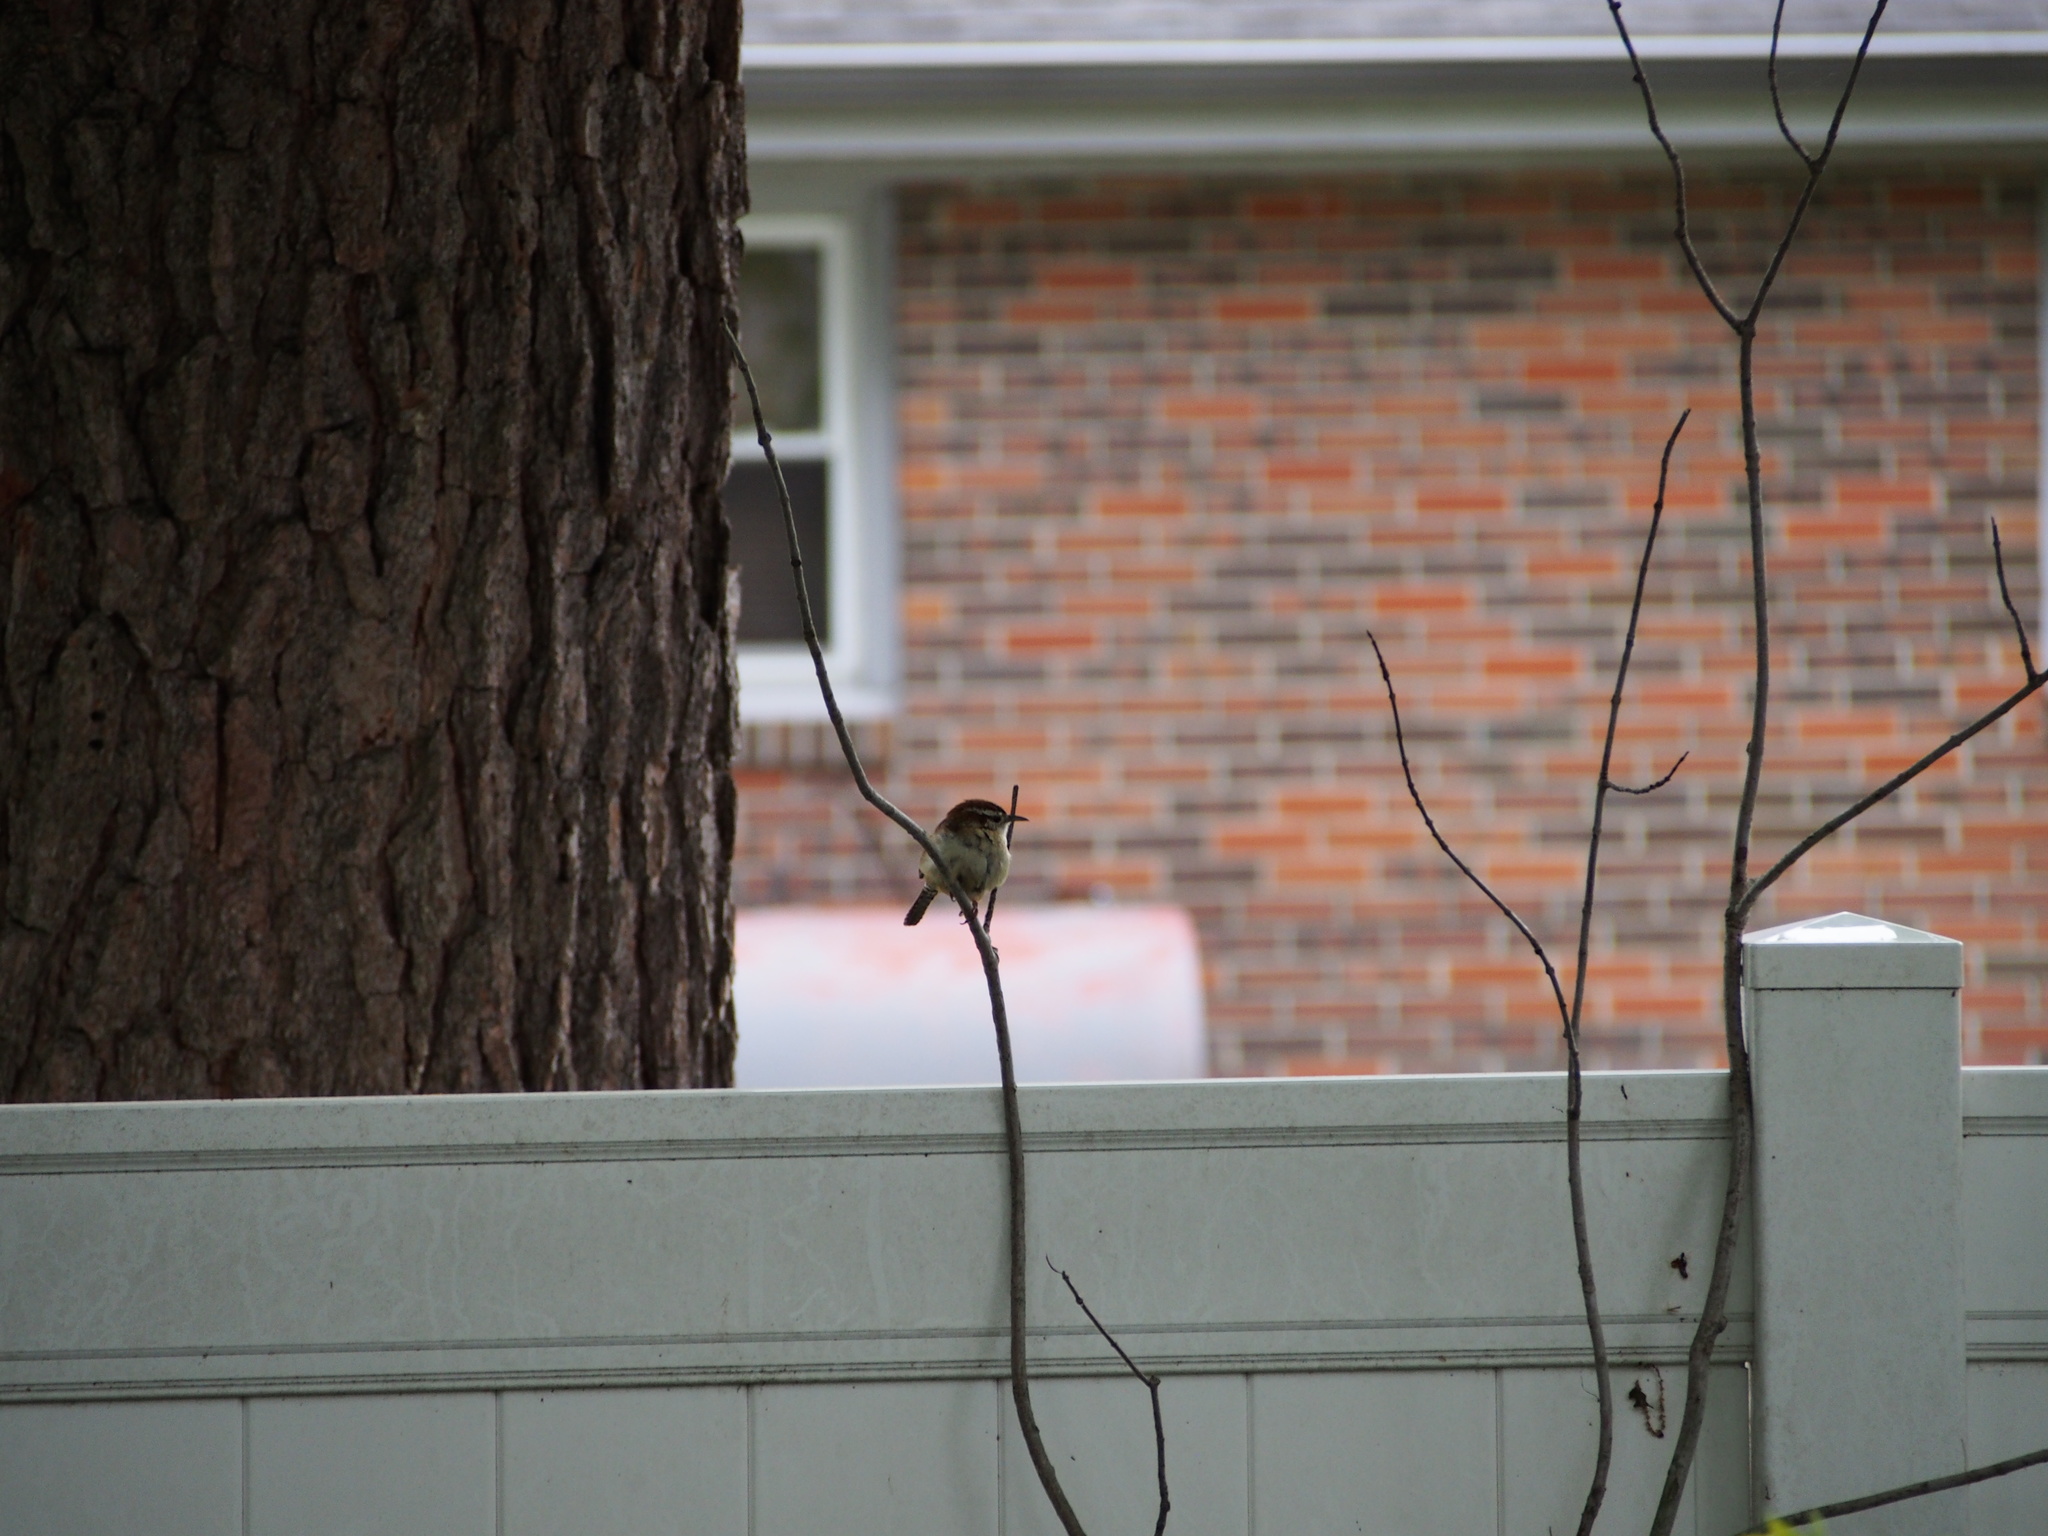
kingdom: Animalia
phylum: Chordata
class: Aves
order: Passeriformes
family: Troglodytidae
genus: Thryothorus
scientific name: Thryothorus ludovicianus
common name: Carolina wren
